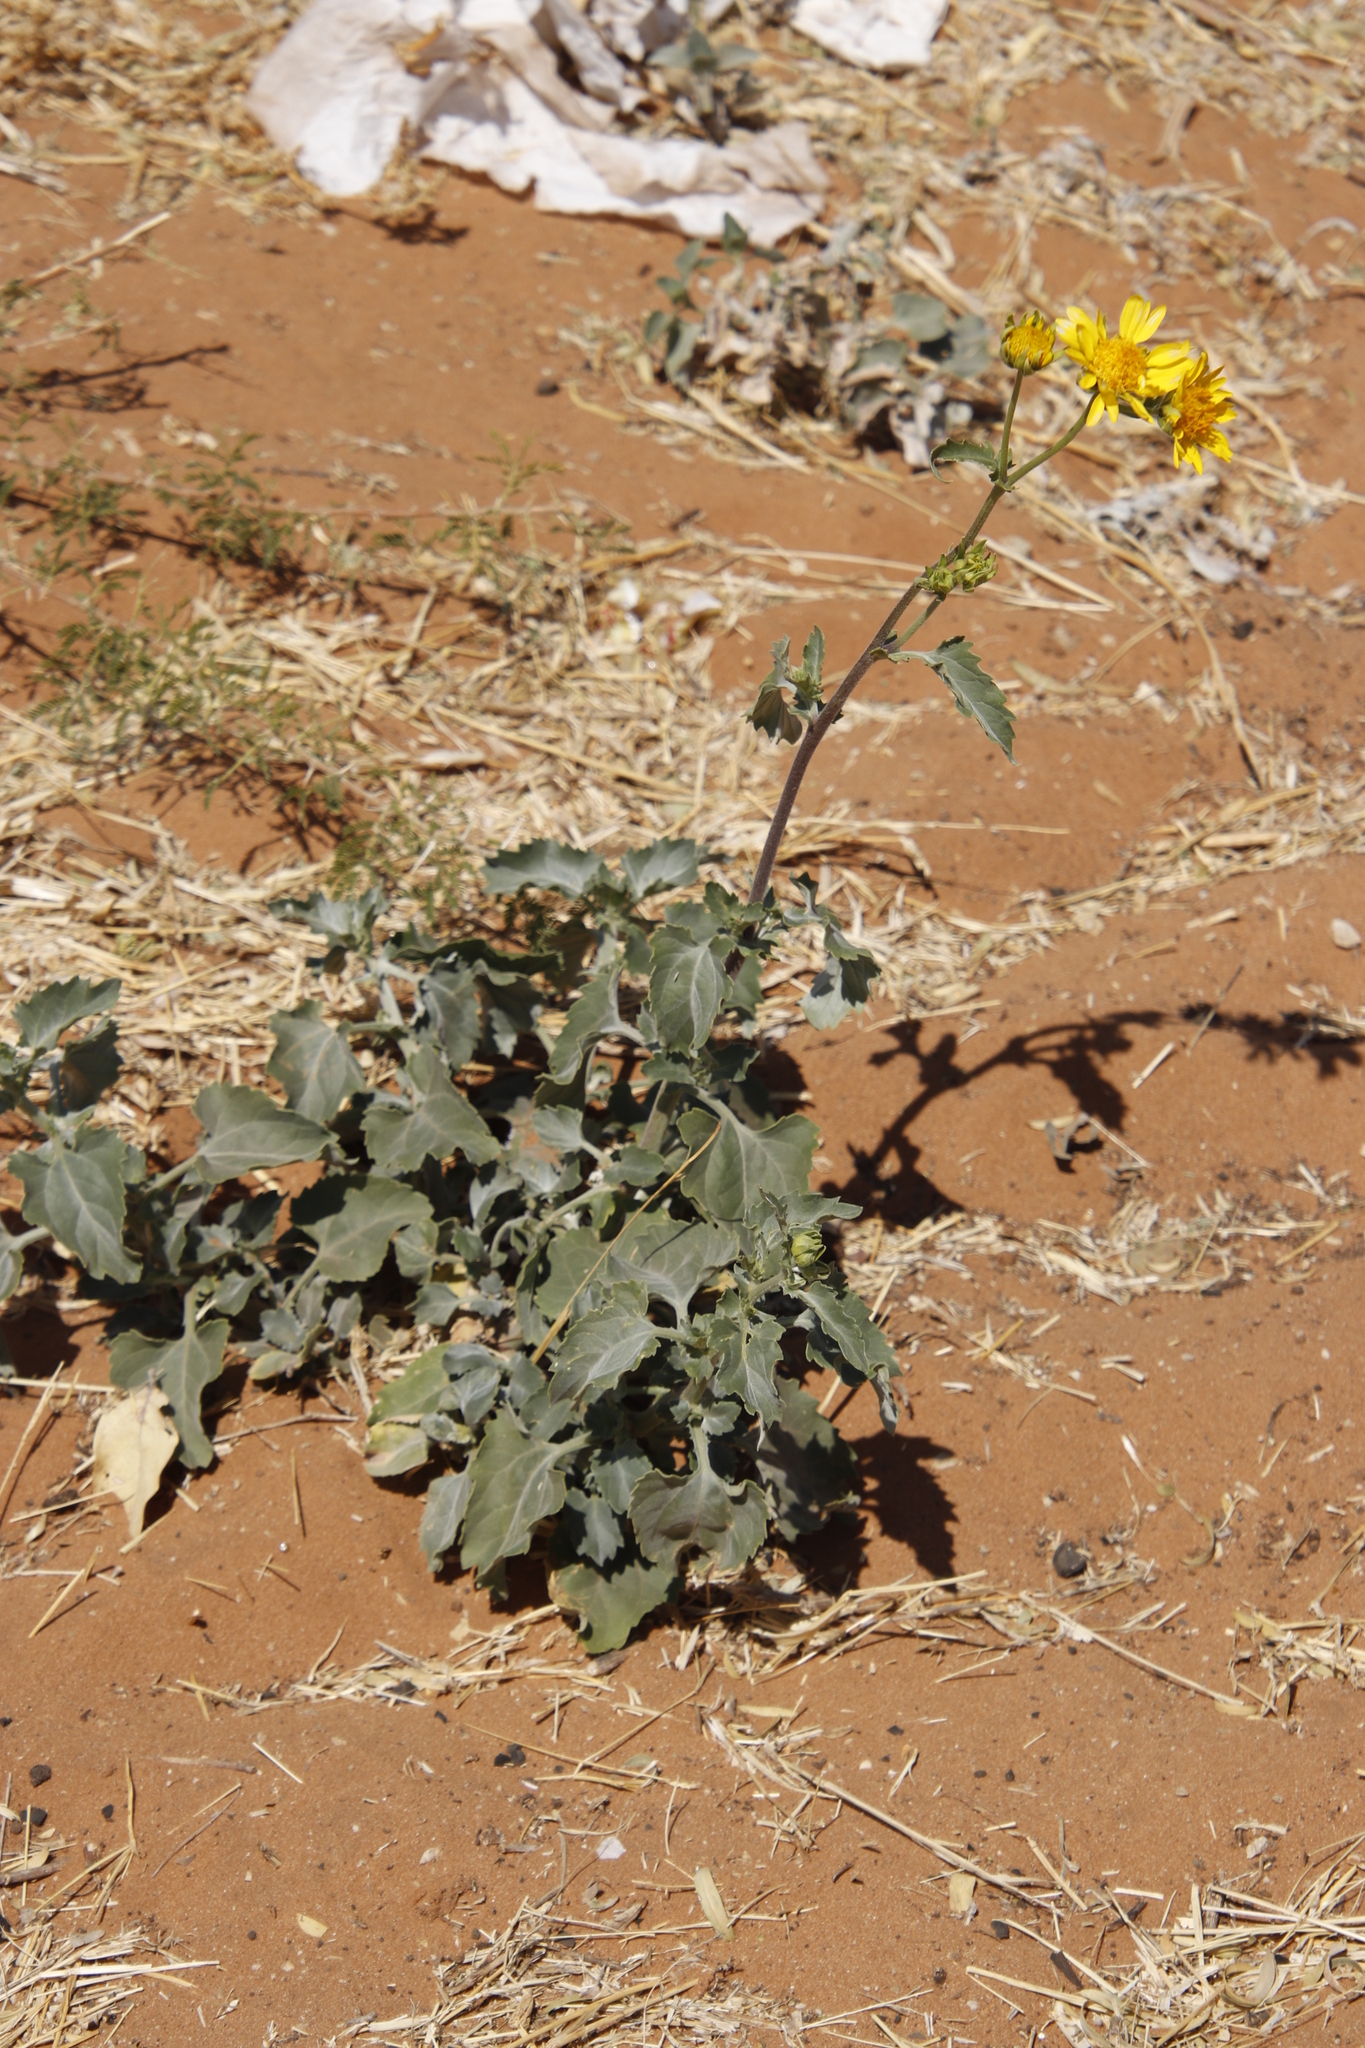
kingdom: Plantae
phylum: Tracheophyta
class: Magnoliopsida
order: Asterales
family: Asteraceae
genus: Verbesina
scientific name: Verbesina encelioides
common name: Golden crownbeard
